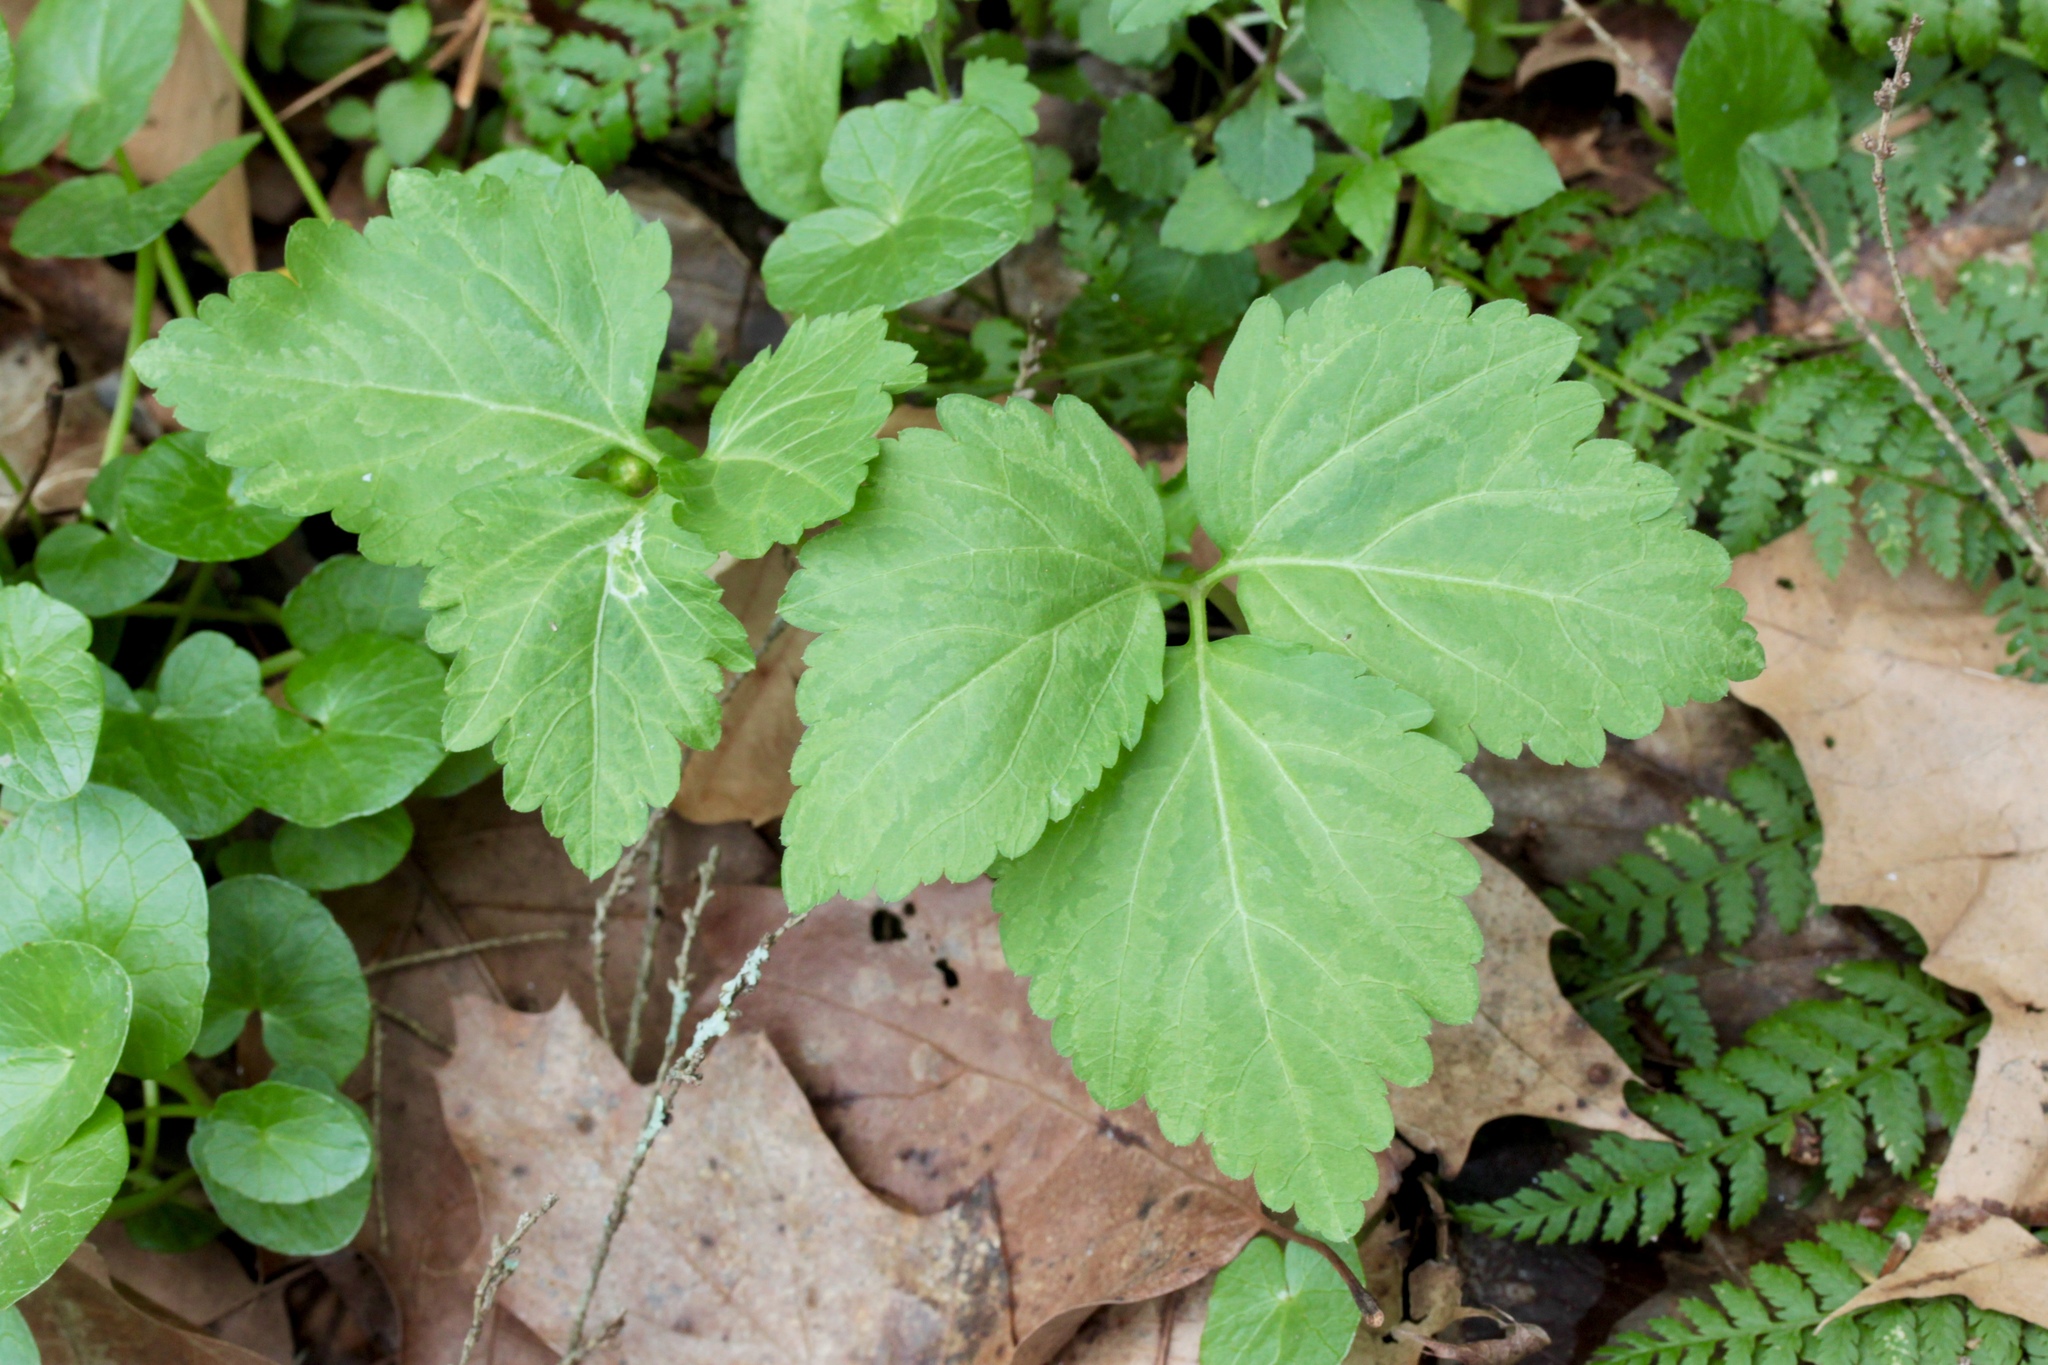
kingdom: Plantae
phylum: Tracheophyta
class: Magnoliopsida
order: Brassicales
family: Brassicaceae
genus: Cardamine
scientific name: Cardamine diphylla
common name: Broad-leaved toothwort
